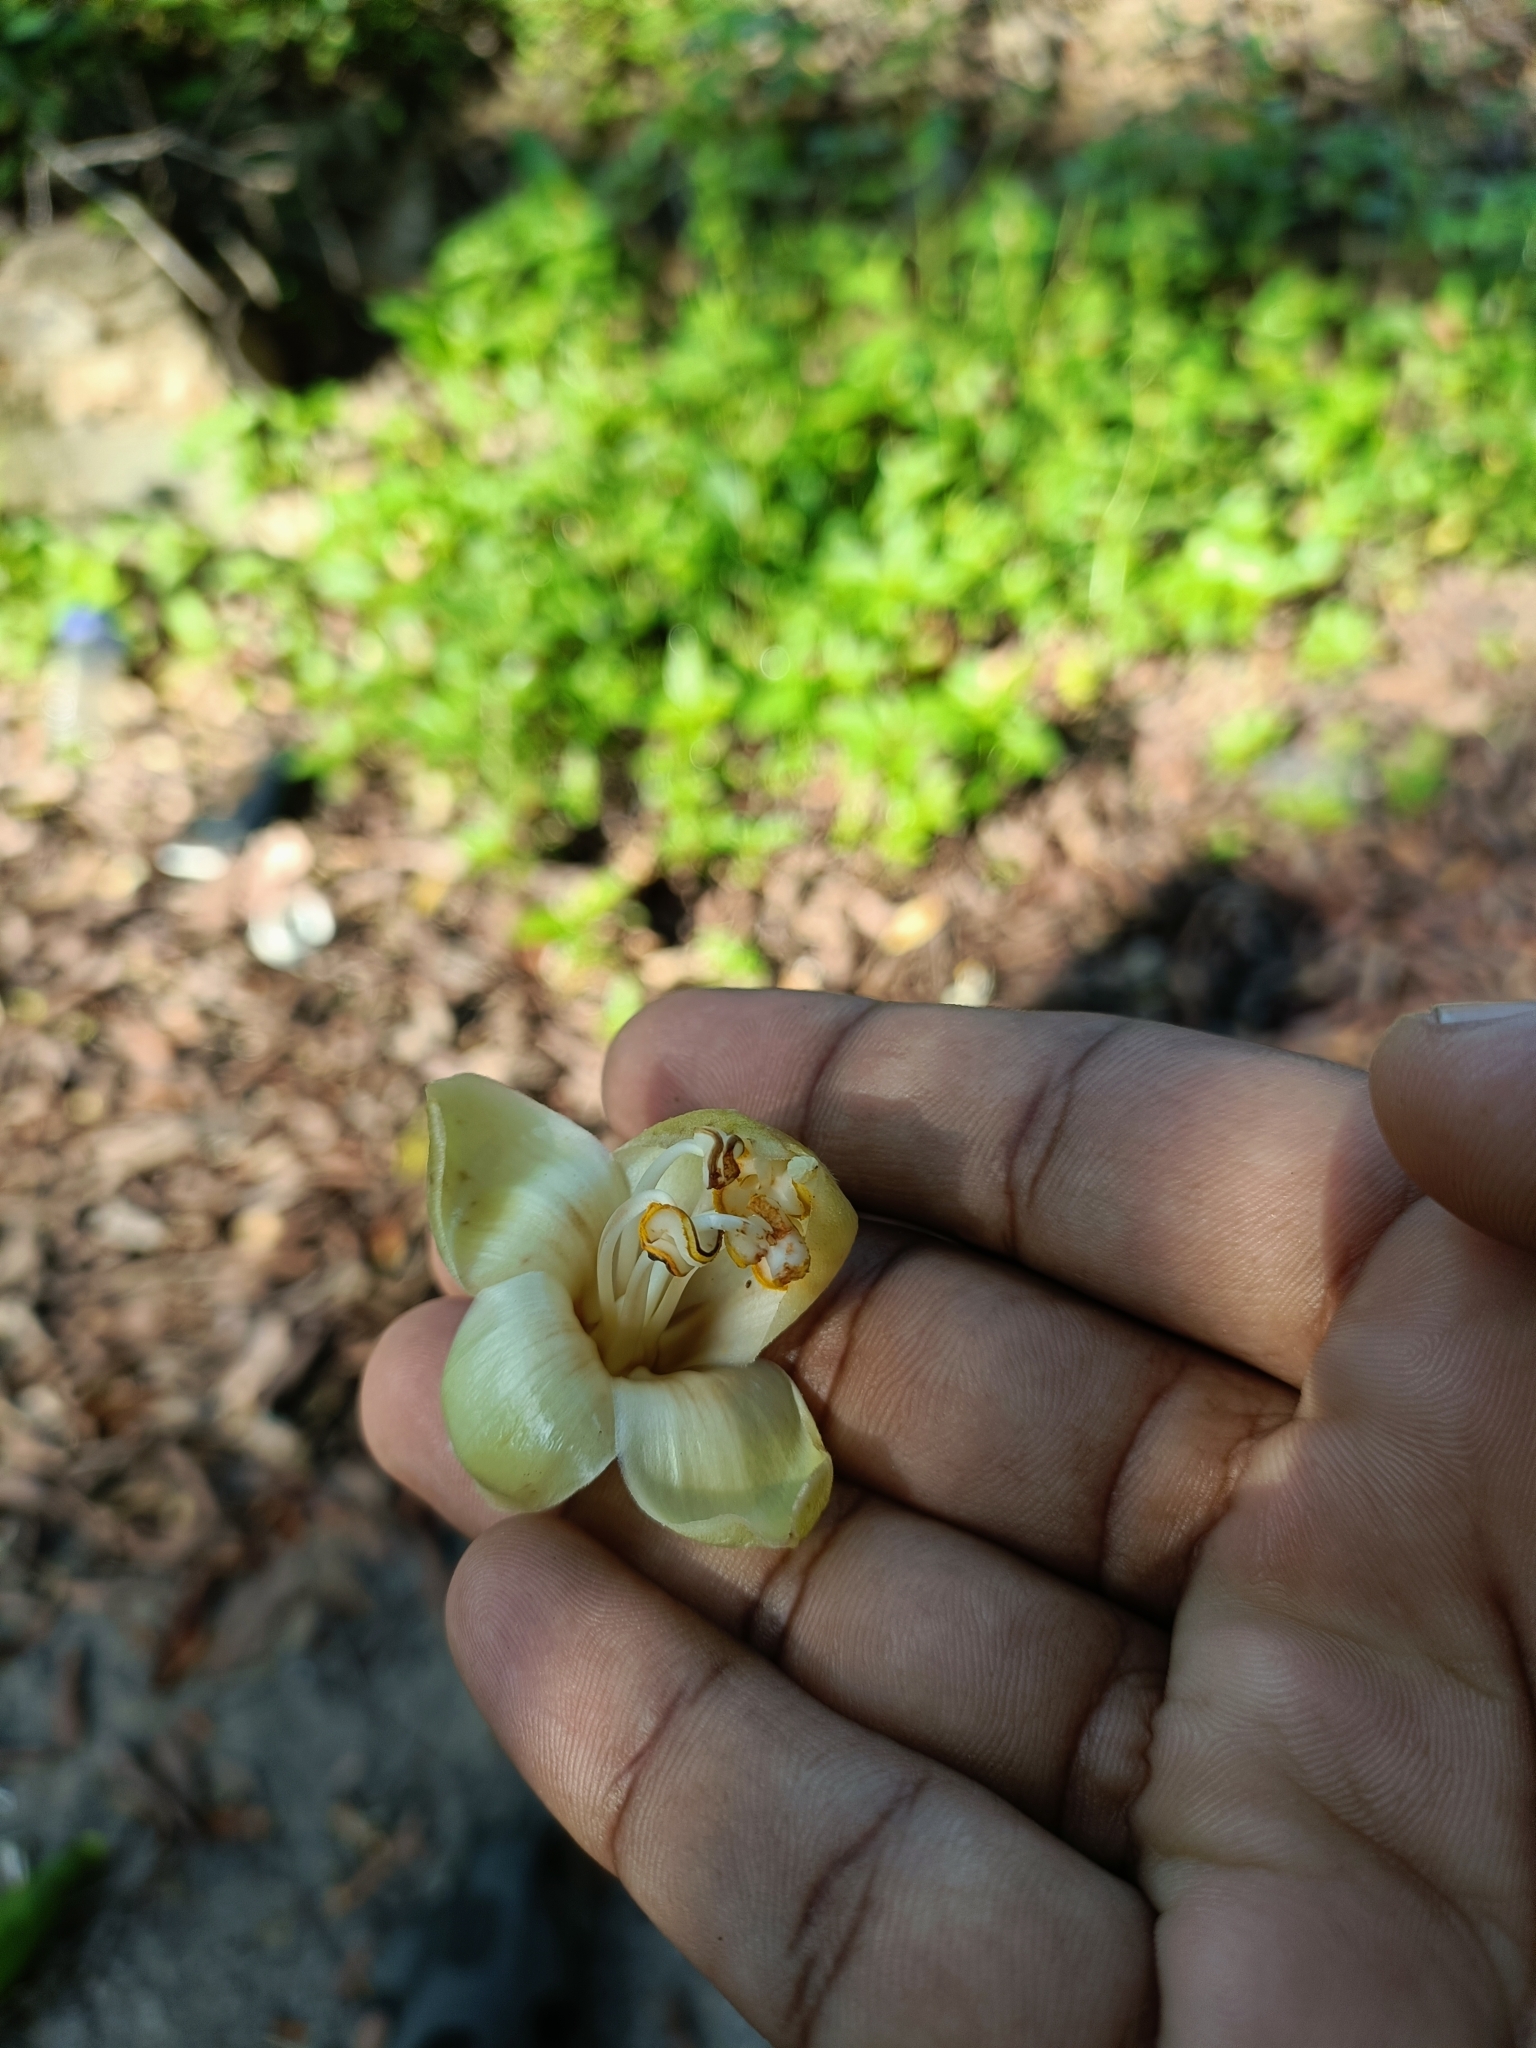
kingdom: Plantae
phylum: Tracheophyta
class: Magnoliopsida
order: Malvales
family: Malvaceae
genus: Ceiba
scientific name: Ceiba pentandra
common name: Kapok
